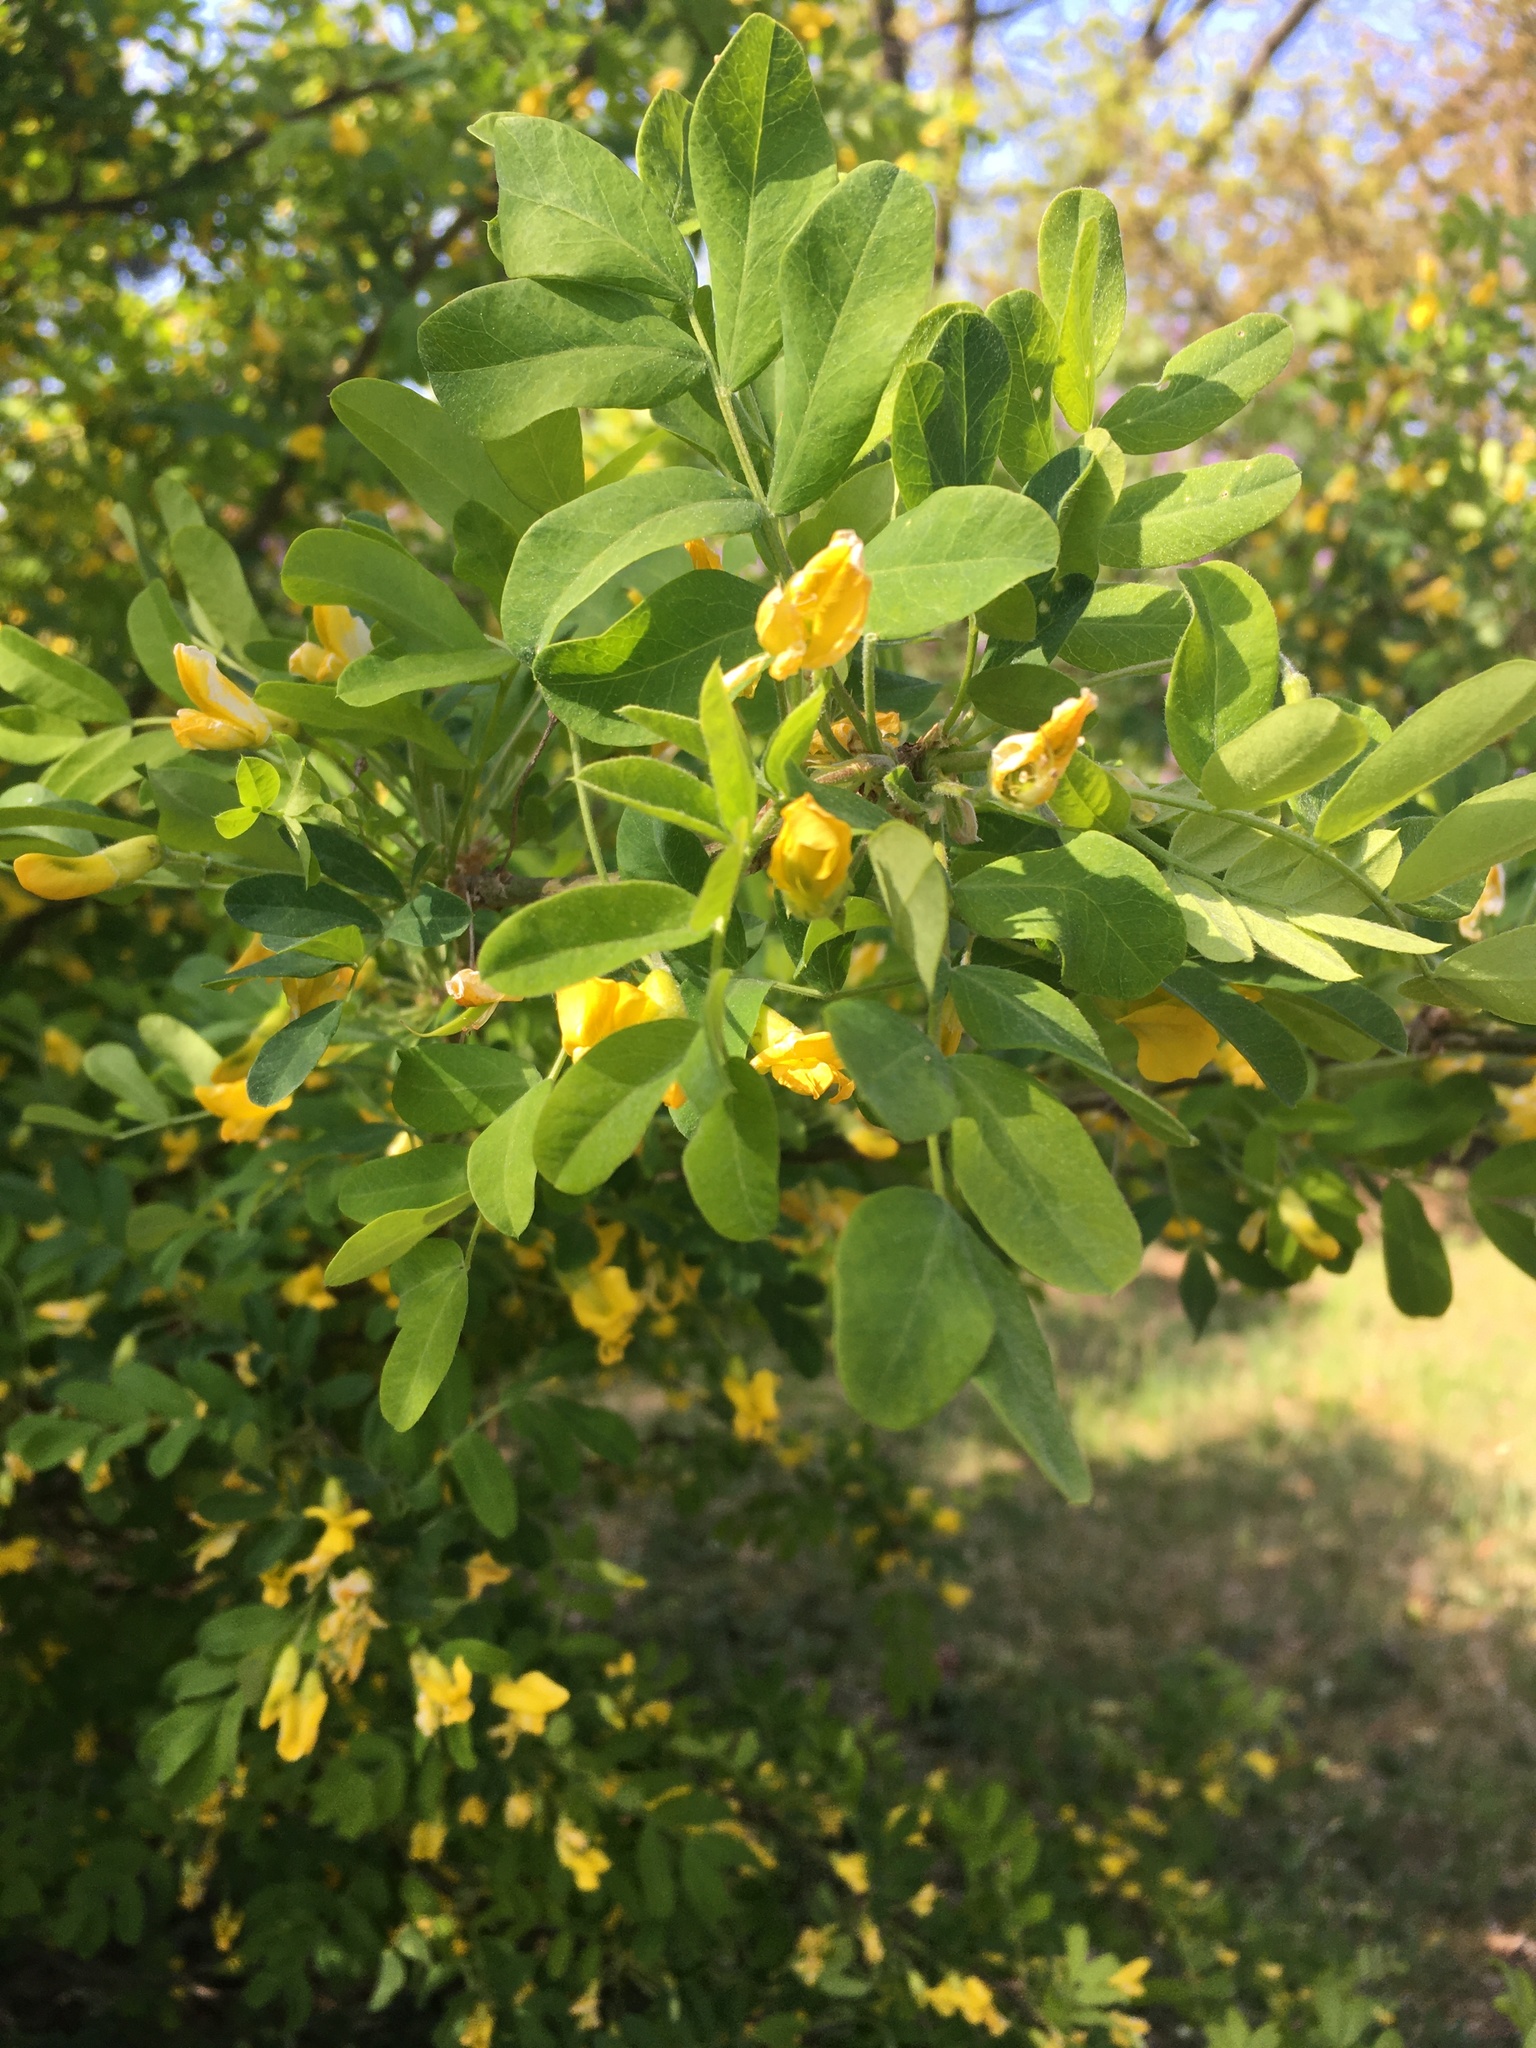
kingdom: Plantae
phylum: Tracheophyta
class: Magnoliopsida
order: Fabales
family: Fabaceae
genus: Caragana
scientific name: Caragana arborescens
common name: Siberian peashrub
